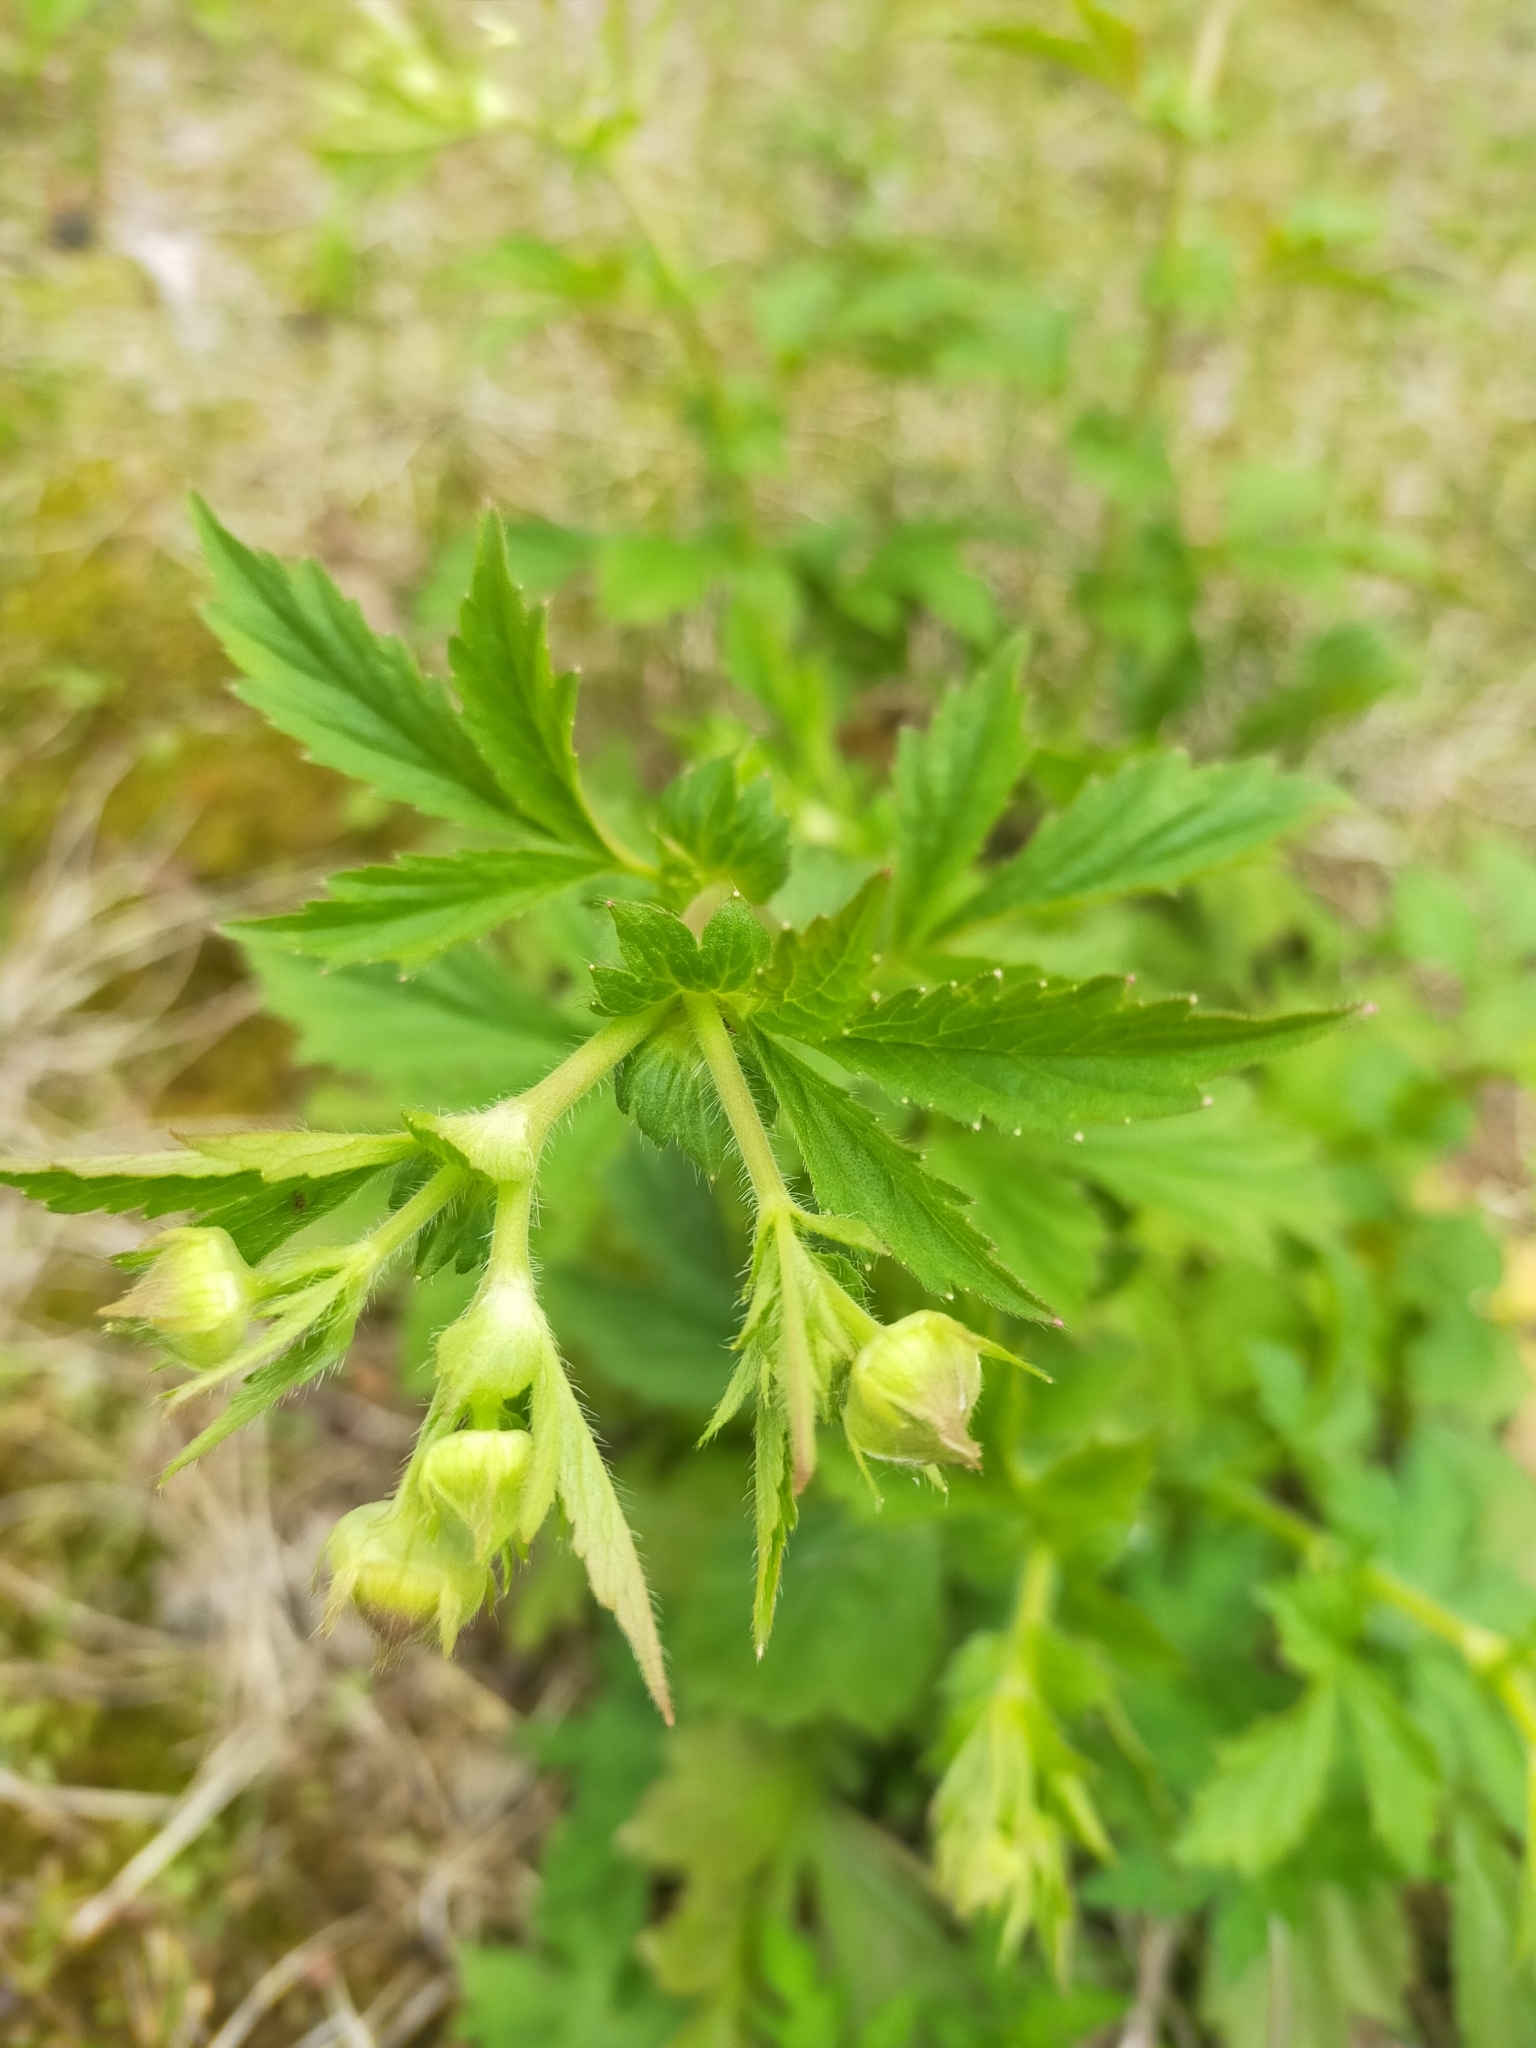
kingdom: Plantae
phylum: Tracheophyta
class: Magnoliopsida
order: Rosales
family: Rosaceae
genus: Geum
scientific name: Geum aleppicum
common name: Yellow avens
